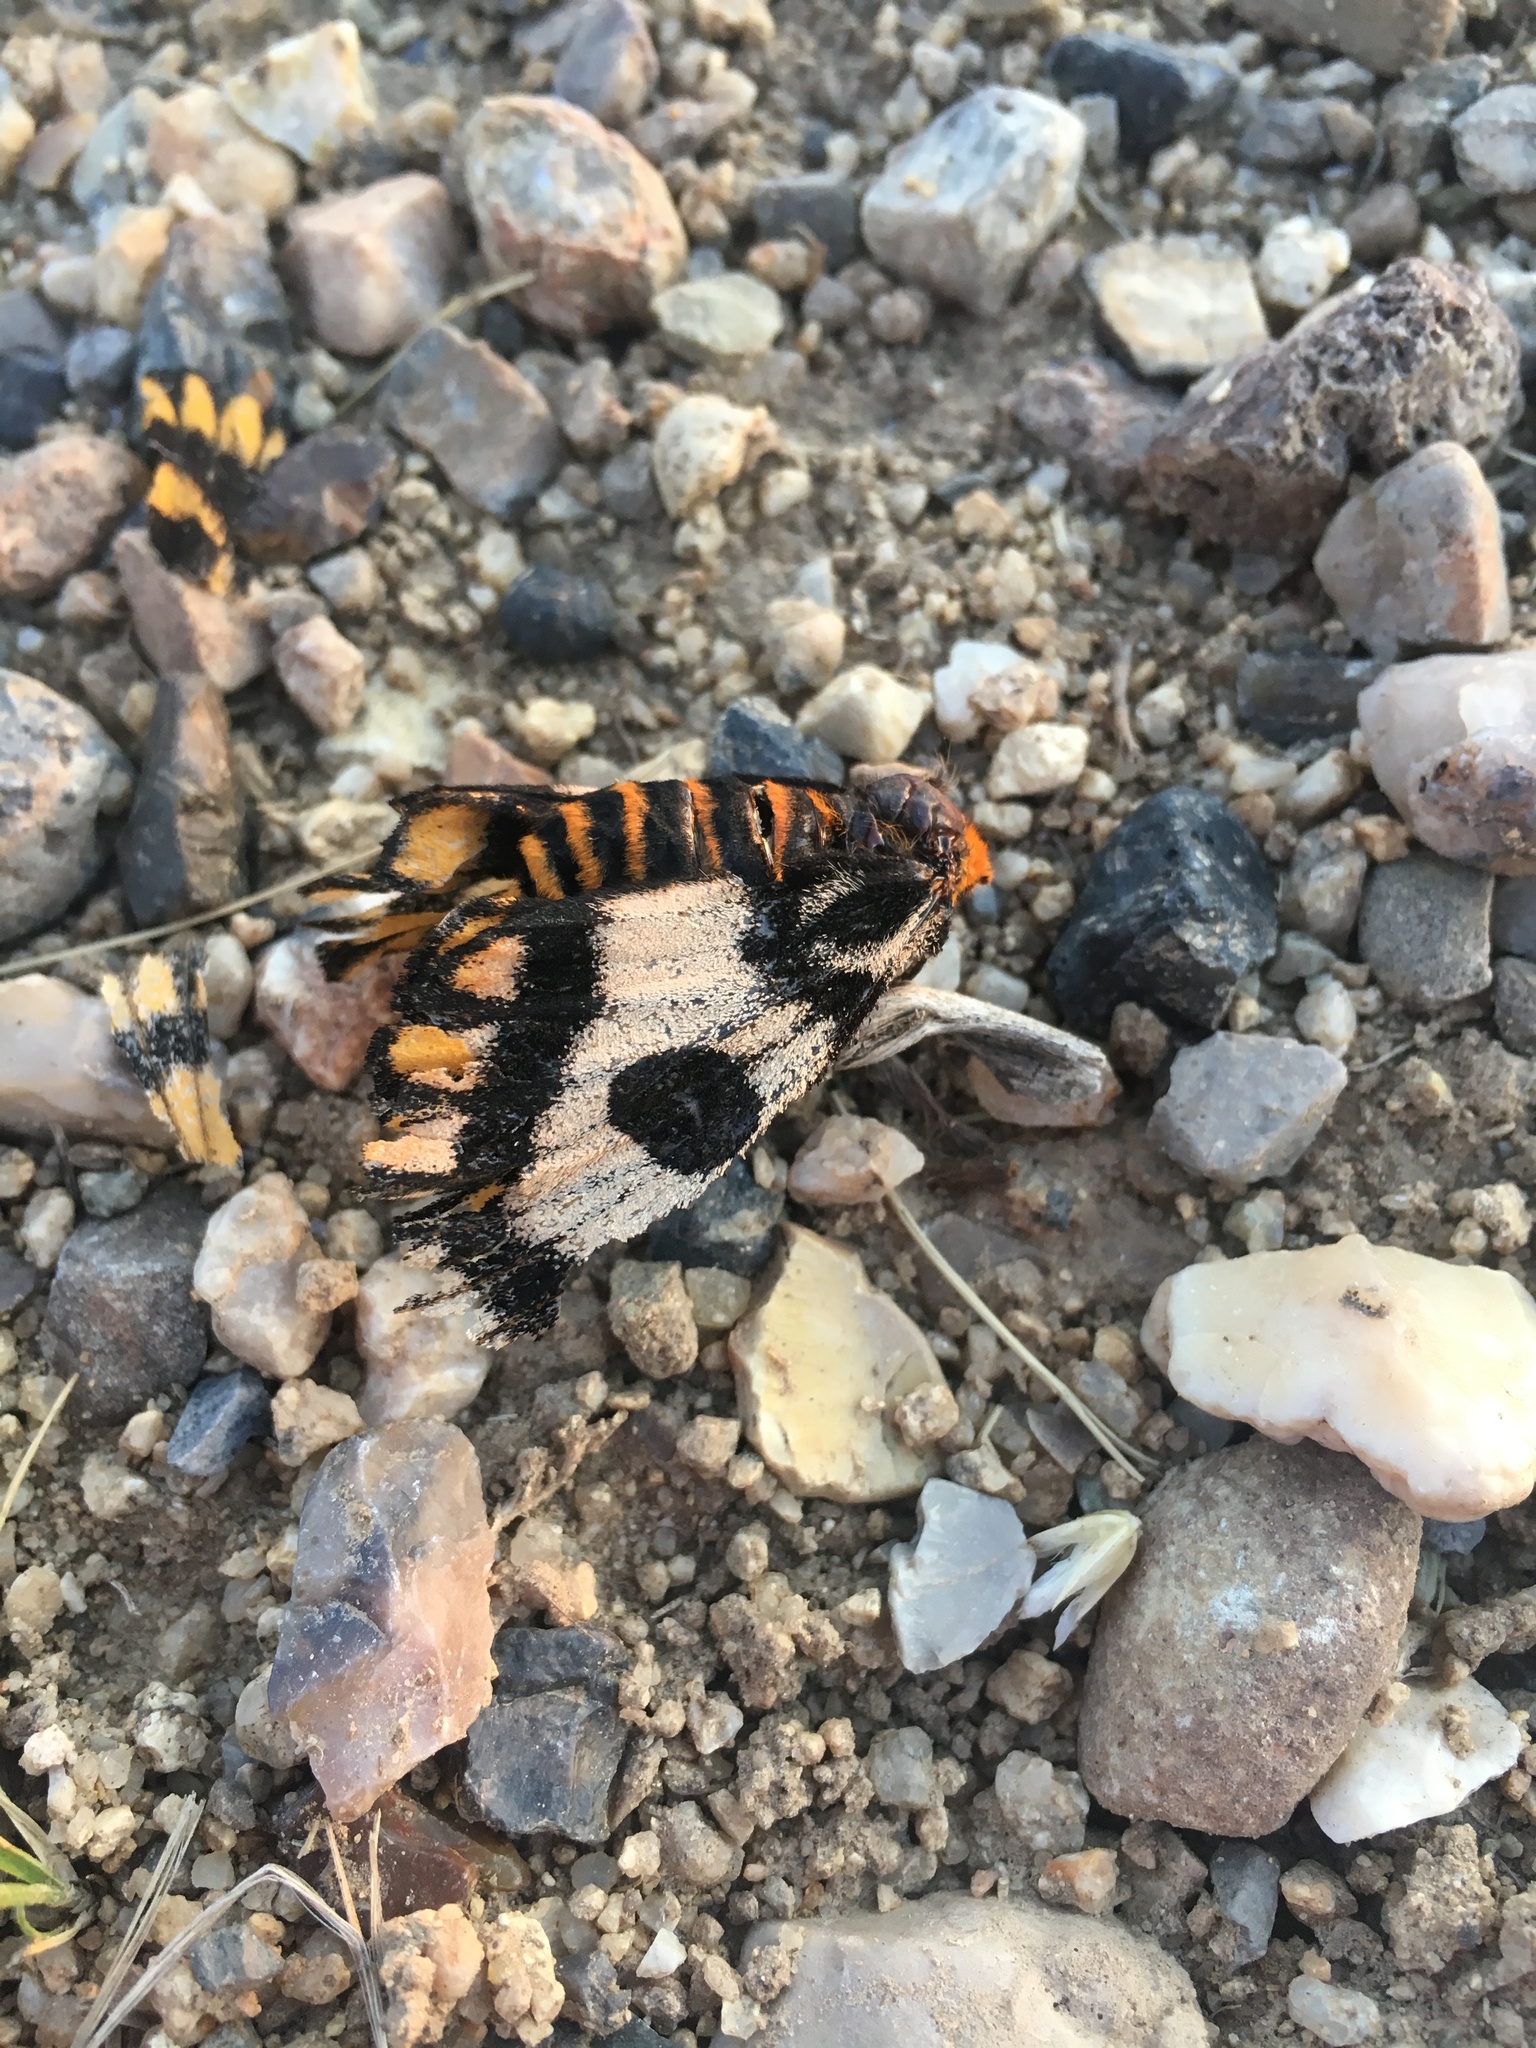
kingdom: Animalia
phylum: Arthropoda
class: Insecta
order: Lepidoptera
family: Saturniidae
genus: Hemileuca
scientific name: Hemileuca eglanterina
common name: Western sheepmoth
